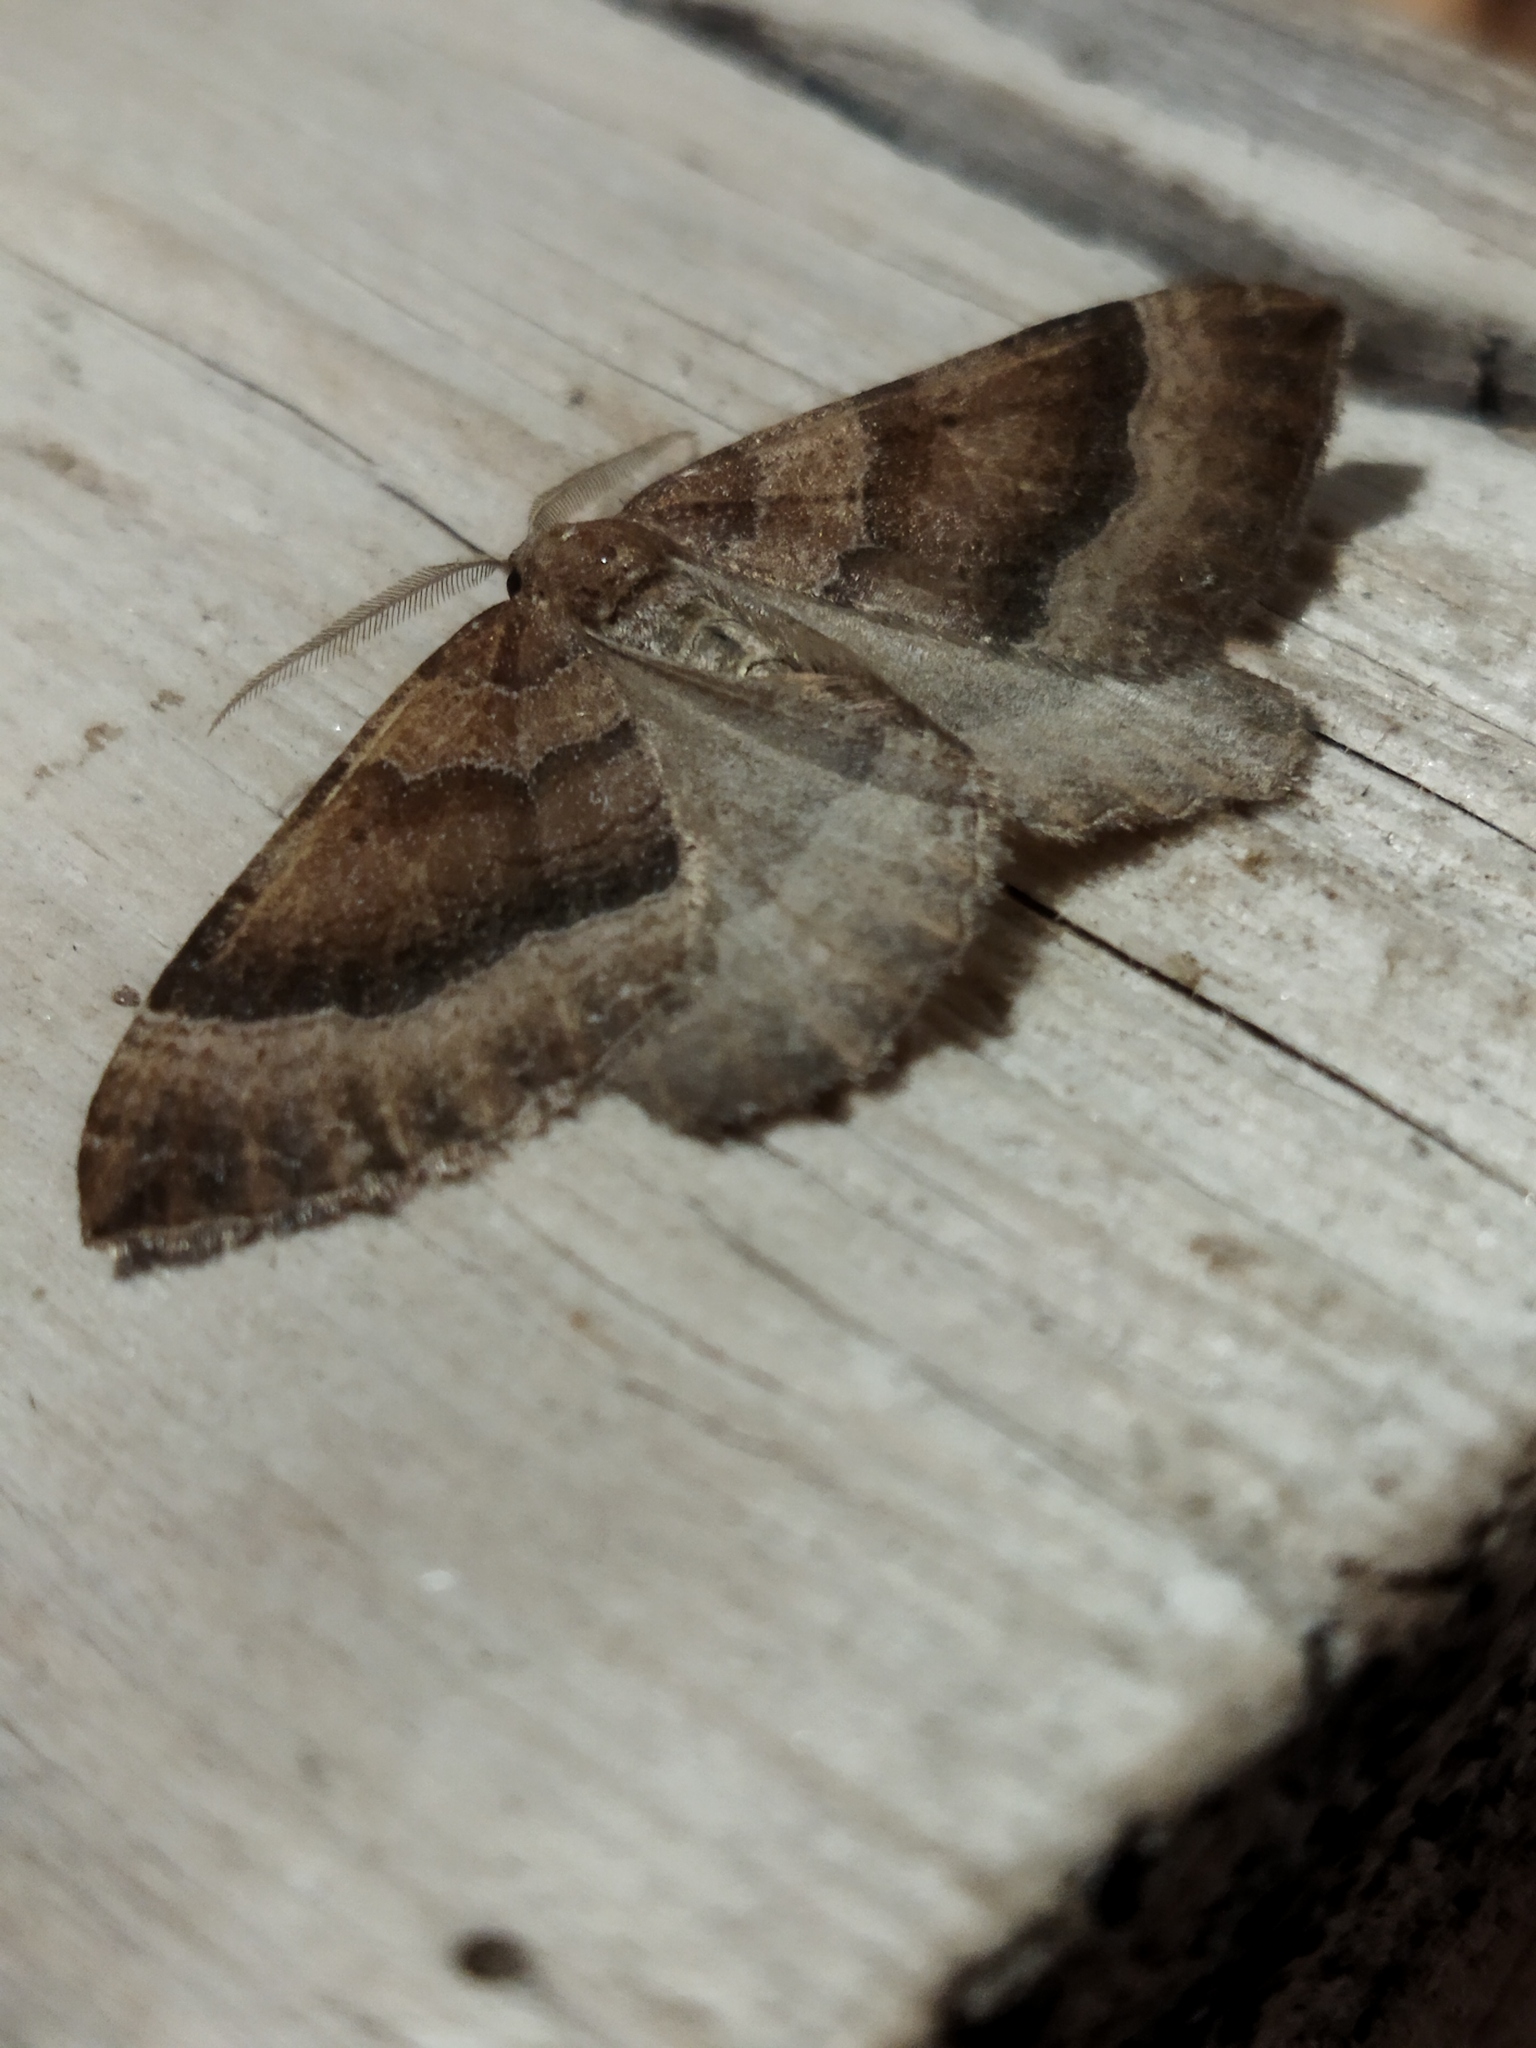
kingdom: Animalia
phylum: Arthropoda
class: Insecta
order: Lepidoptera
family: Geometridae
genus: Larentia
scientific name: Larentia clavaria
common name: Mallow
